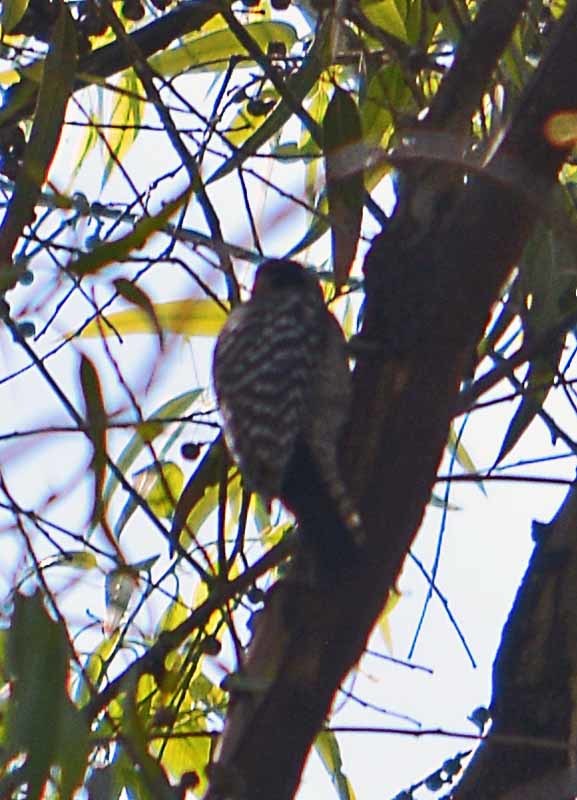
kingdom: Animalia
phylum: Chordata
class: Aves
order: Piciformes
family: Picidae
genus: Dryobates
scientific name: Dryobates scalaris
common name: Ladder-backed woodpecker
